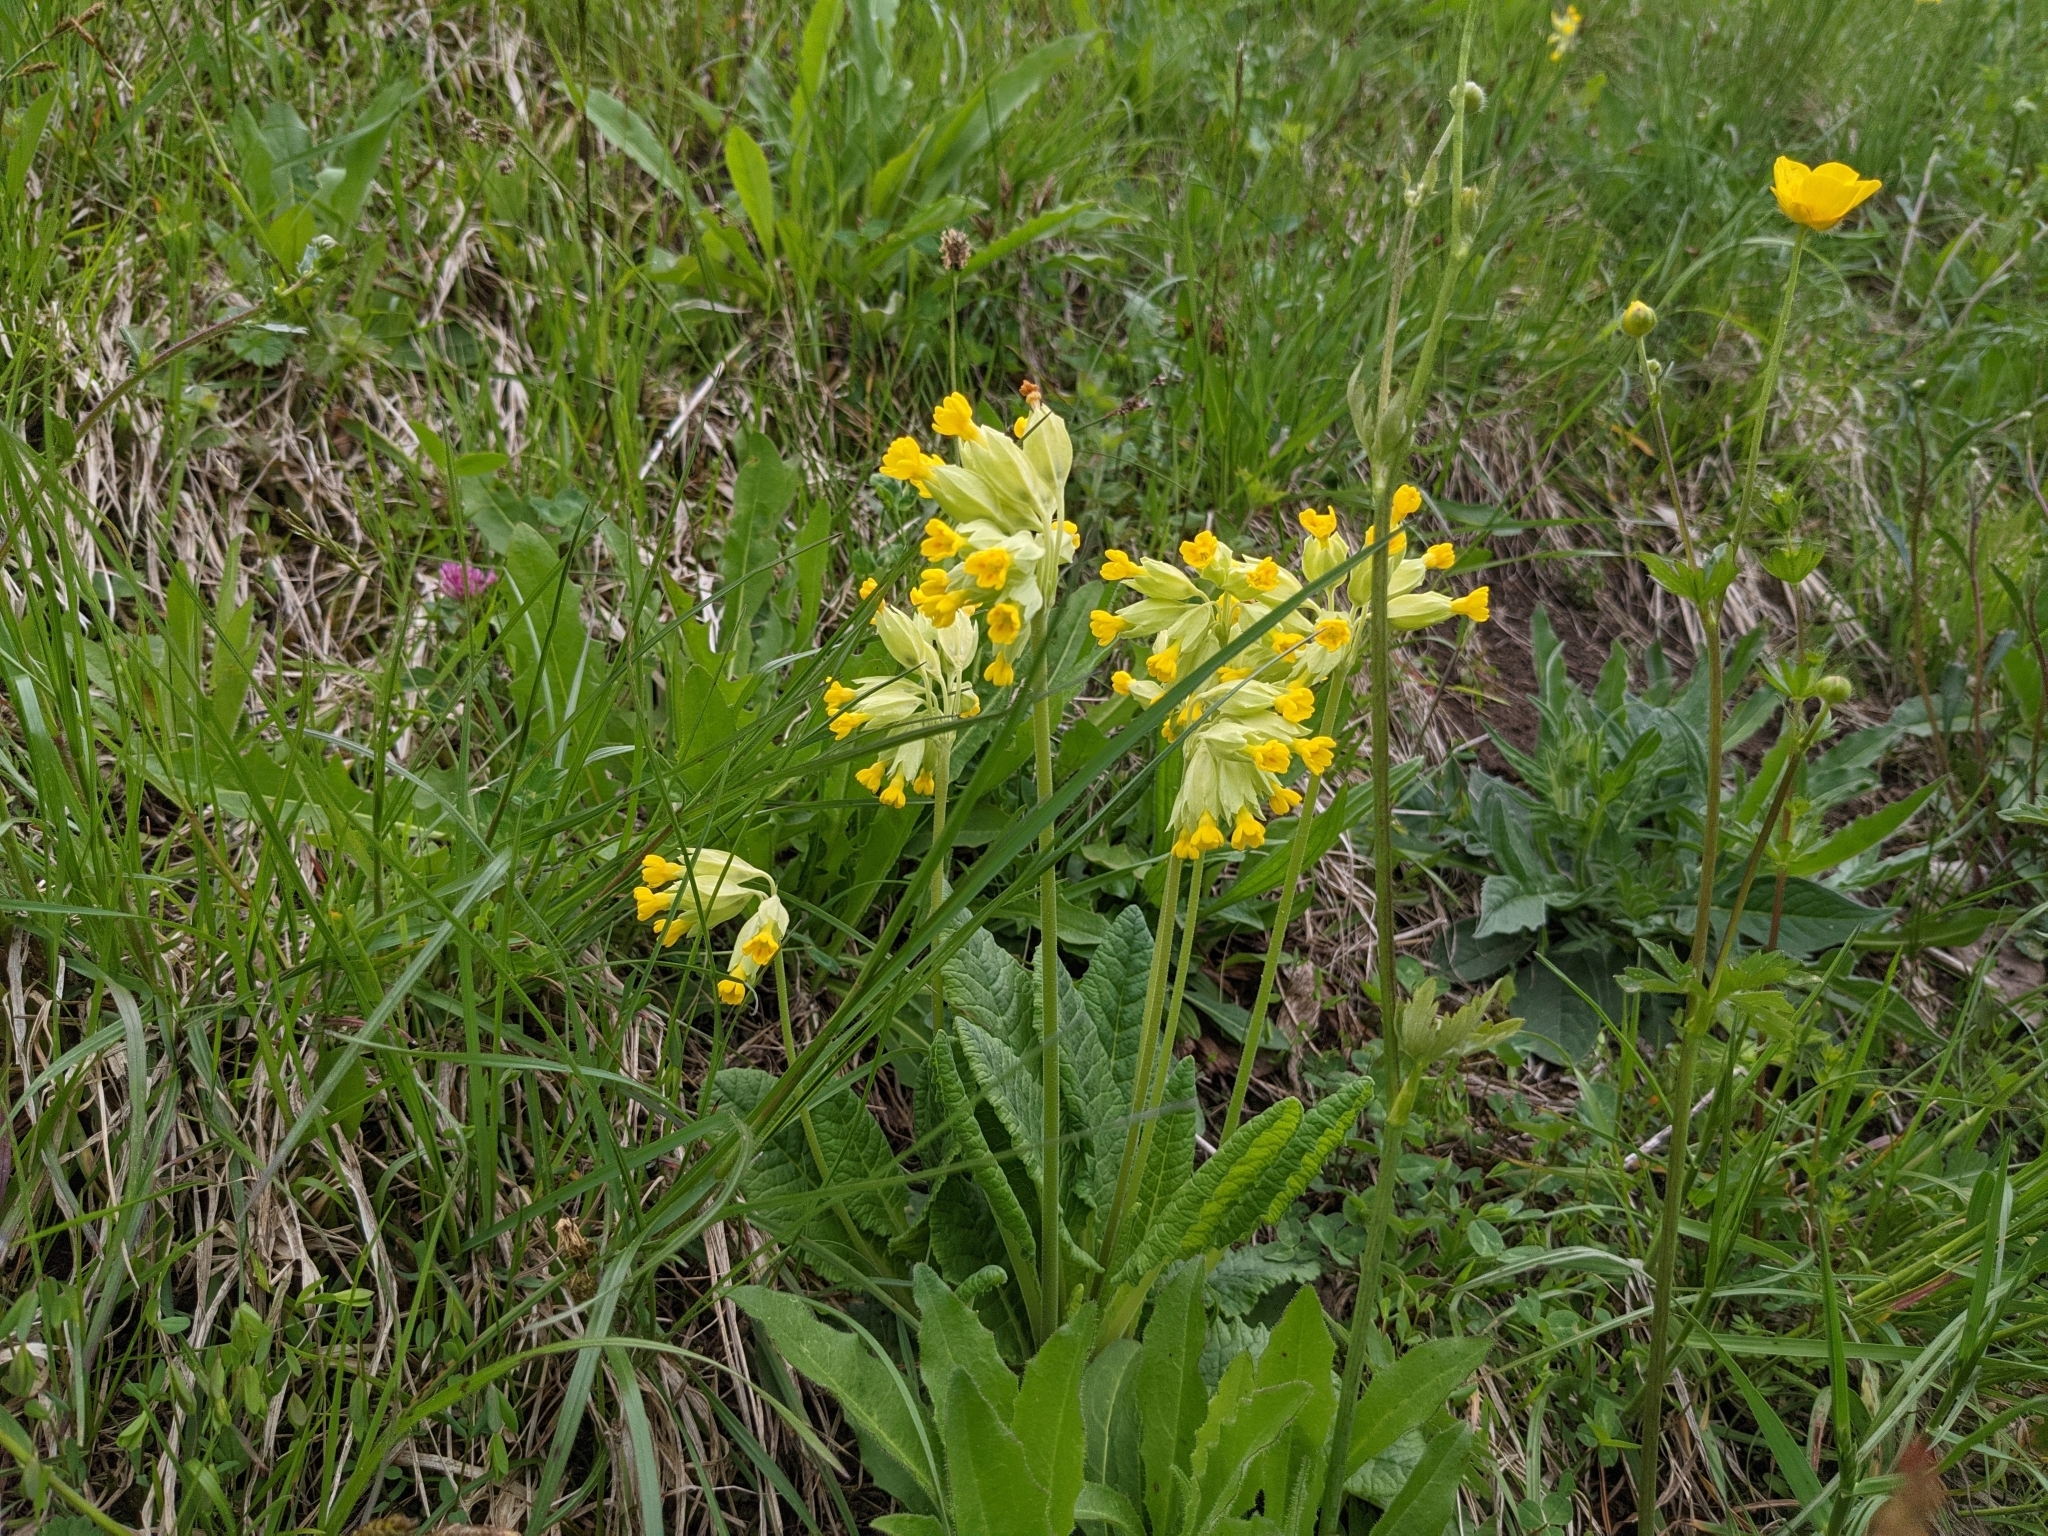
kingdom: Plantae
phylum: Tracheophyta
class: Magnoliopsida
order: Ericales
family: Primulaceae
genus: Primula
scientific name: Primula veris
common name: Cowslip
